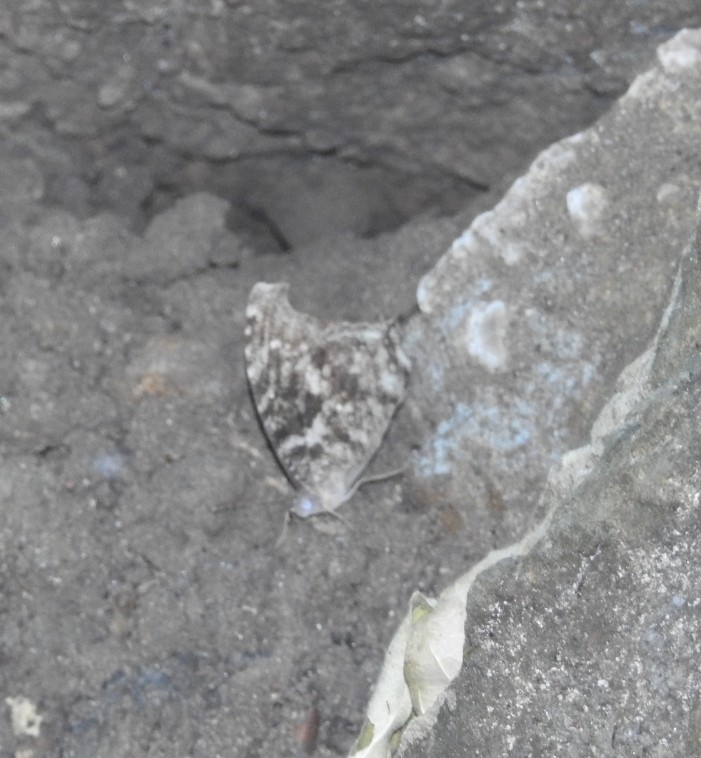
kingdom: Animalia
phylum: Arthropoda
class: Insecta
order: Lepidoptera
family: Nymphalidae
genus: Melanitis
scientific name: Melanitis leda
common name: Twilight brown
